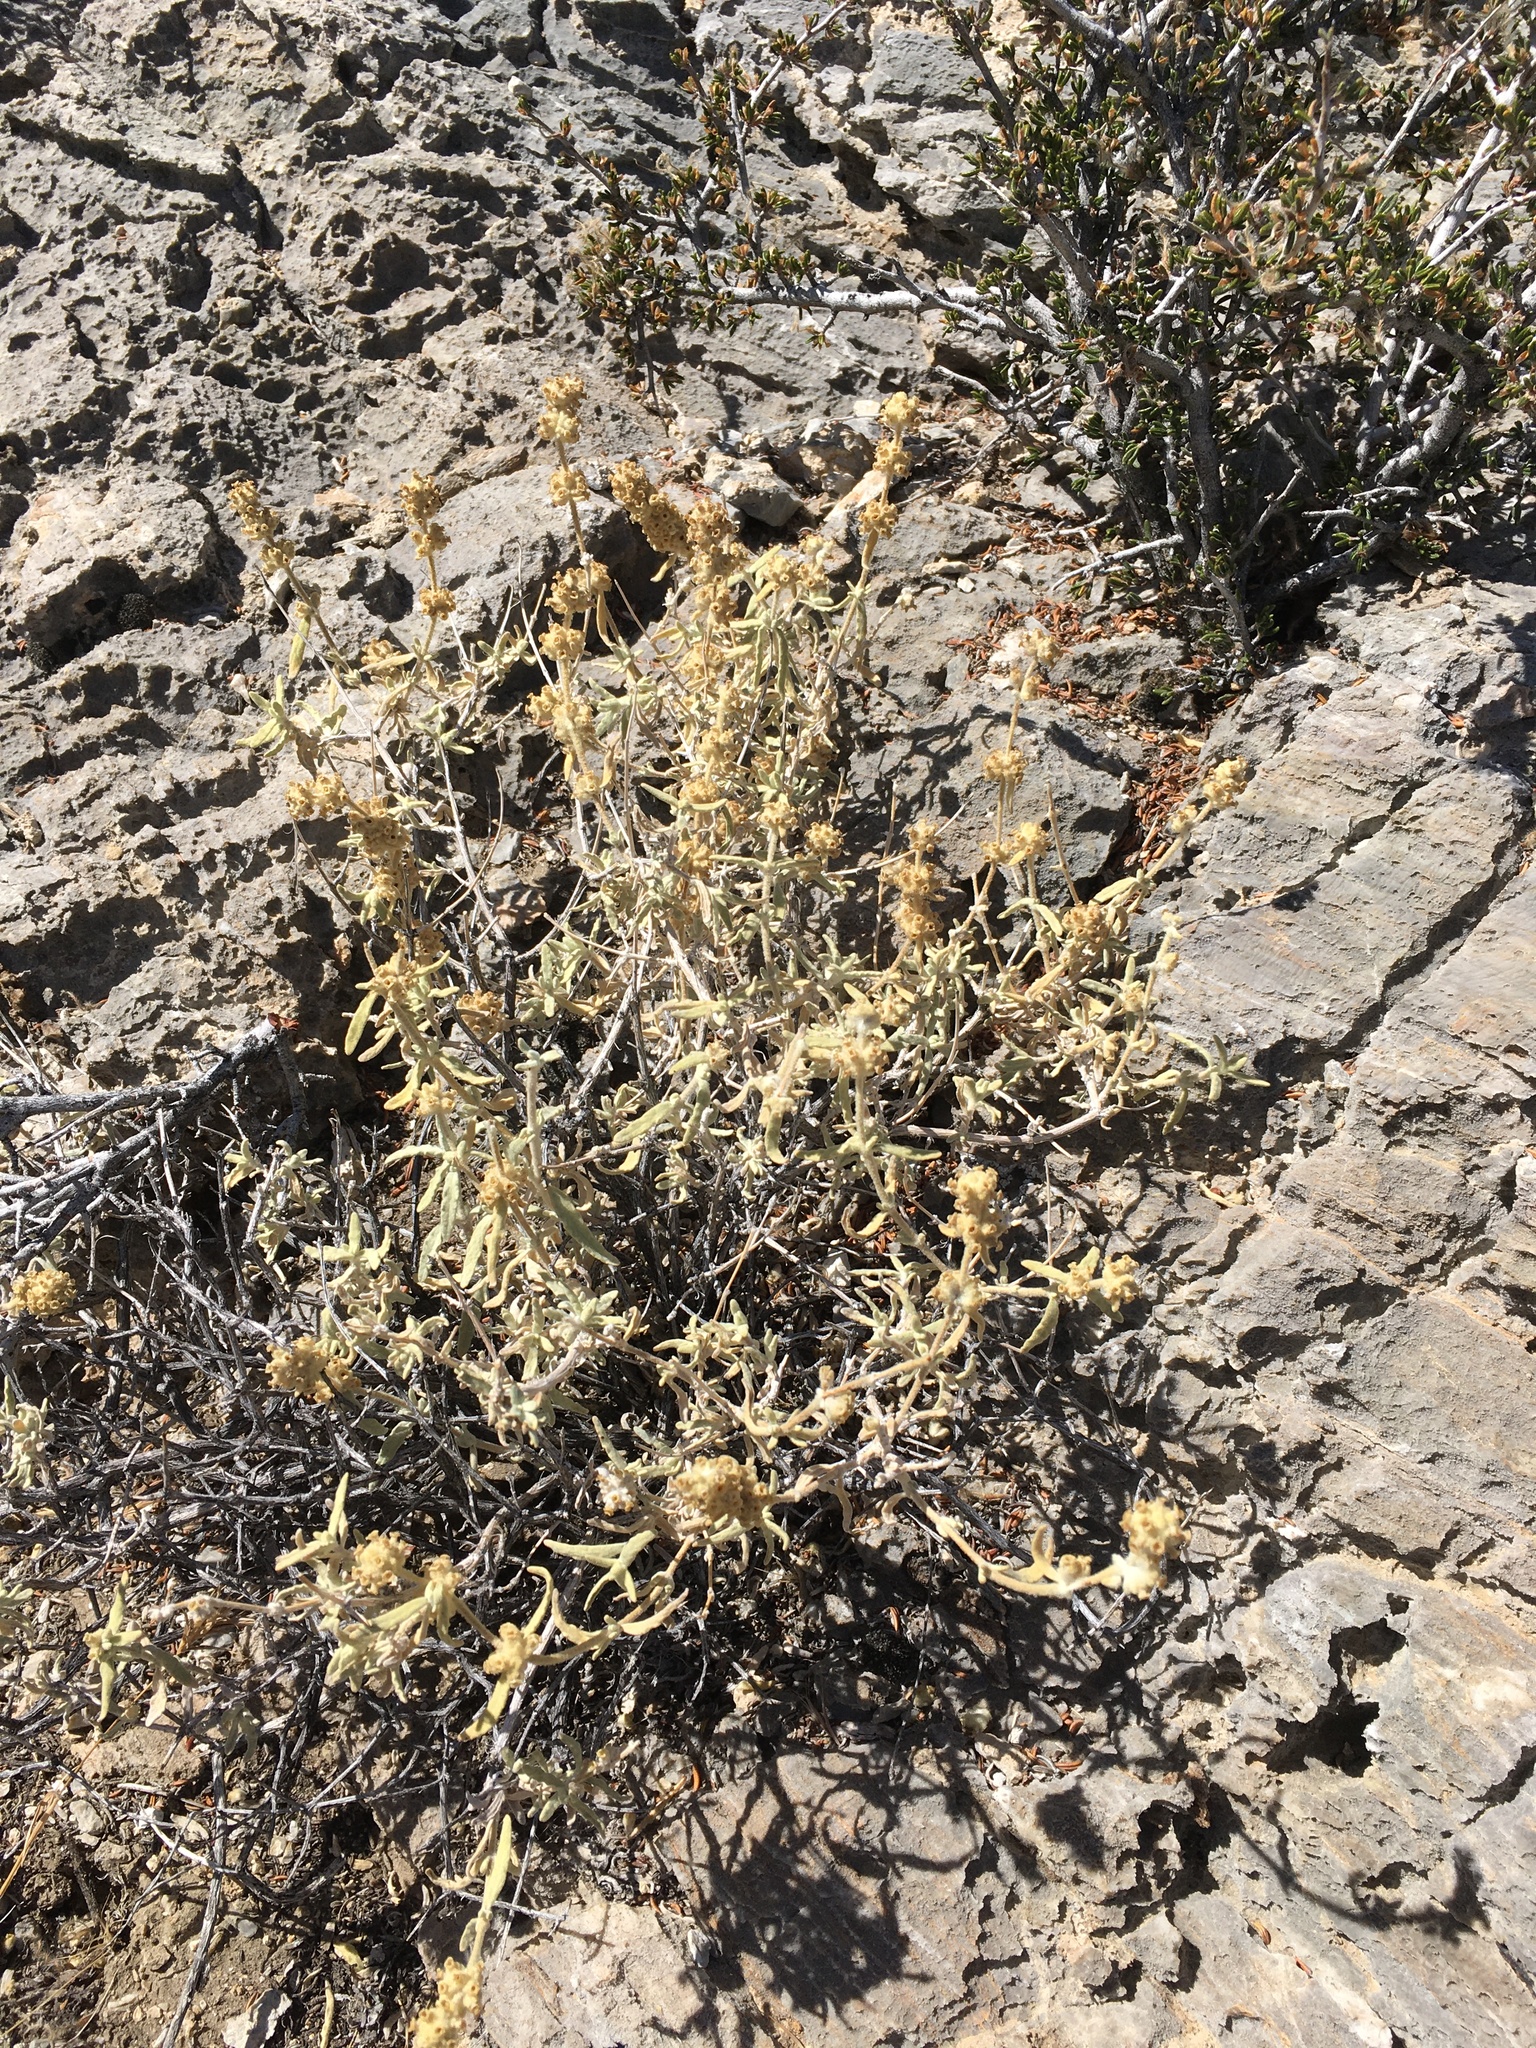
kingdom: Plantae
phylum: Tracheophyta
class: Magnoliopsida
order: Lamiales
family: Scrophulariaceae
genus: Buddleja
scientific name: Buddleja utahensis
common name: Utah butterfly-bush
